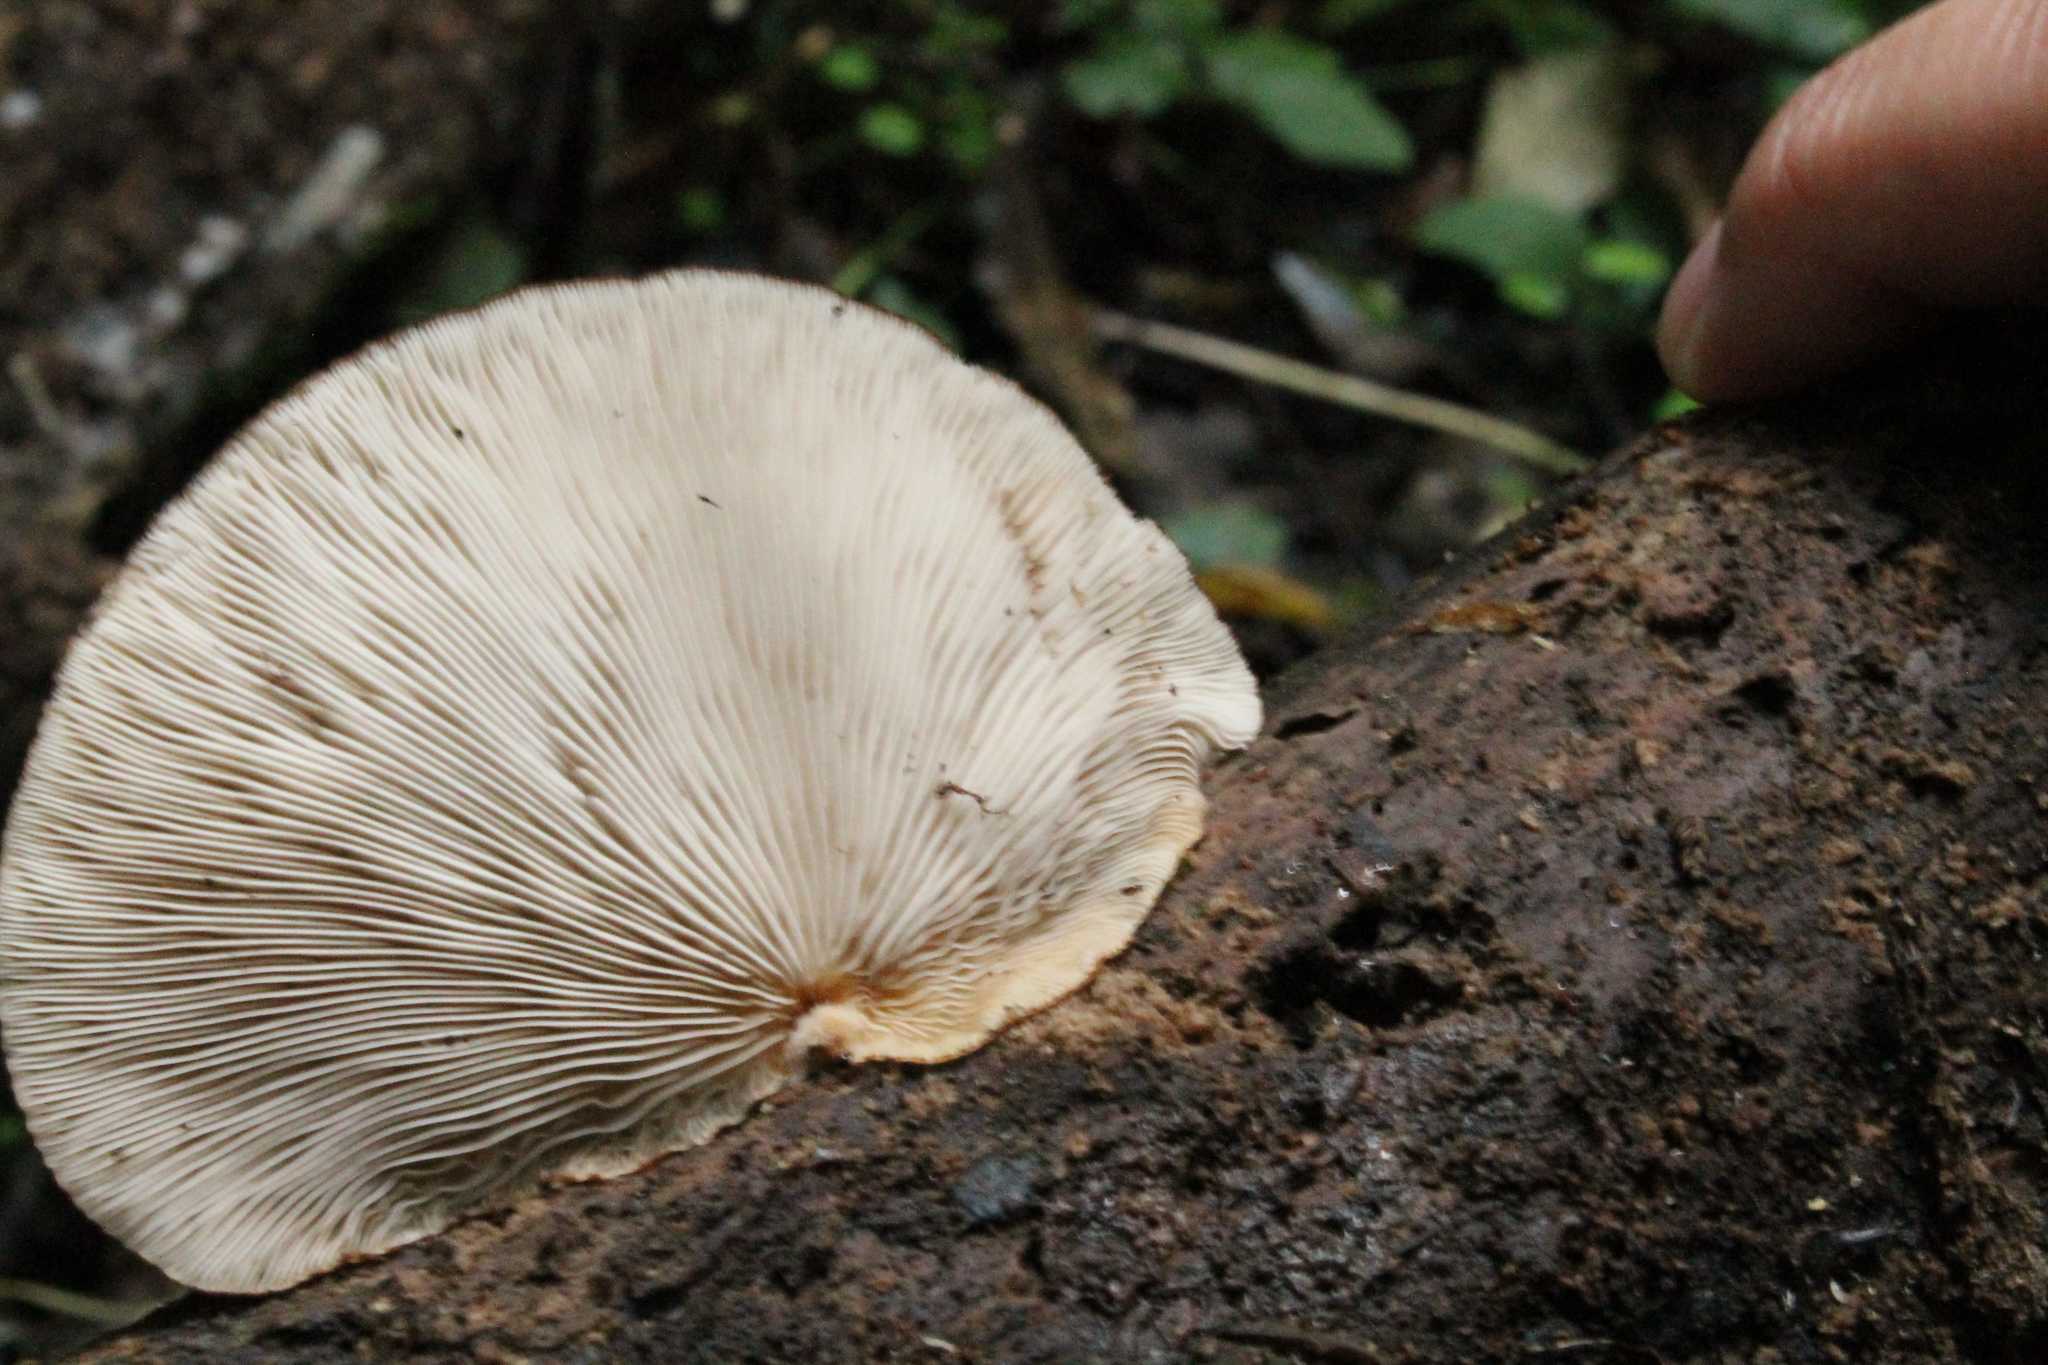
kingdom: Fungi
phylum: Basidiomycota
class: Agaricomycetes
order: Agaricales
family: Crepidotaceae
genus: Crepidotus
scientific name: Crepidotus fuscovelutinus
